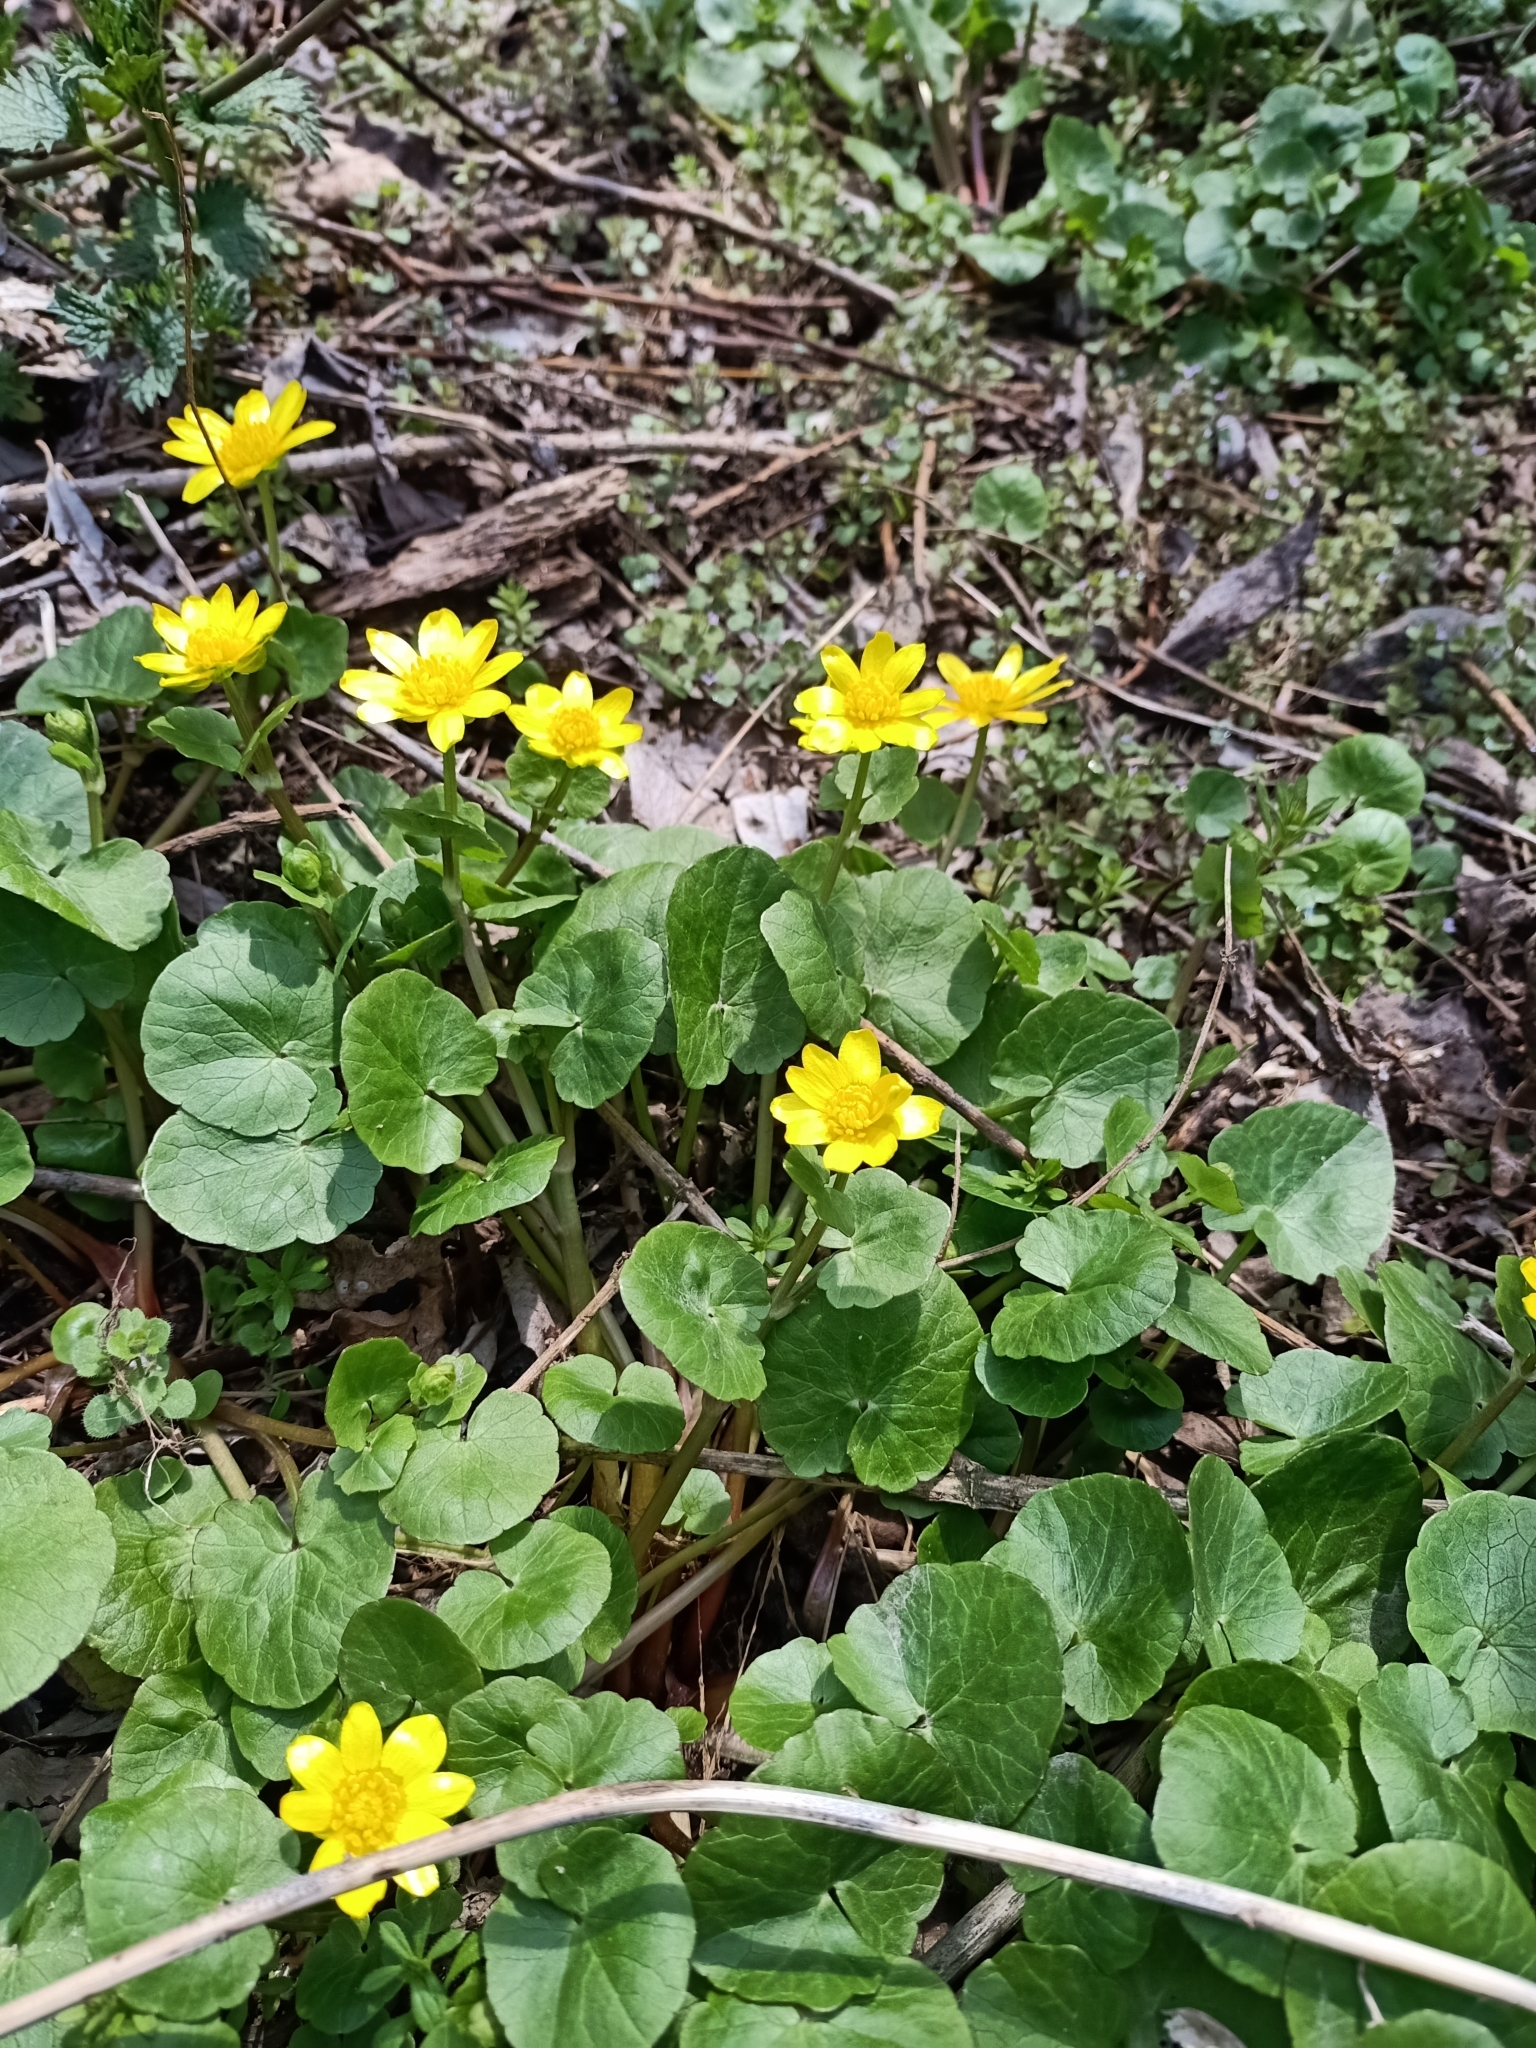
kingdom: Plantae
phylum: Tracheophyta
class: Magnoliopsida
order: Ranunculales
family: Ranunculaceae
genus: Ficaria
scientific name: Ficaria verna
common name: Lesser celandine
